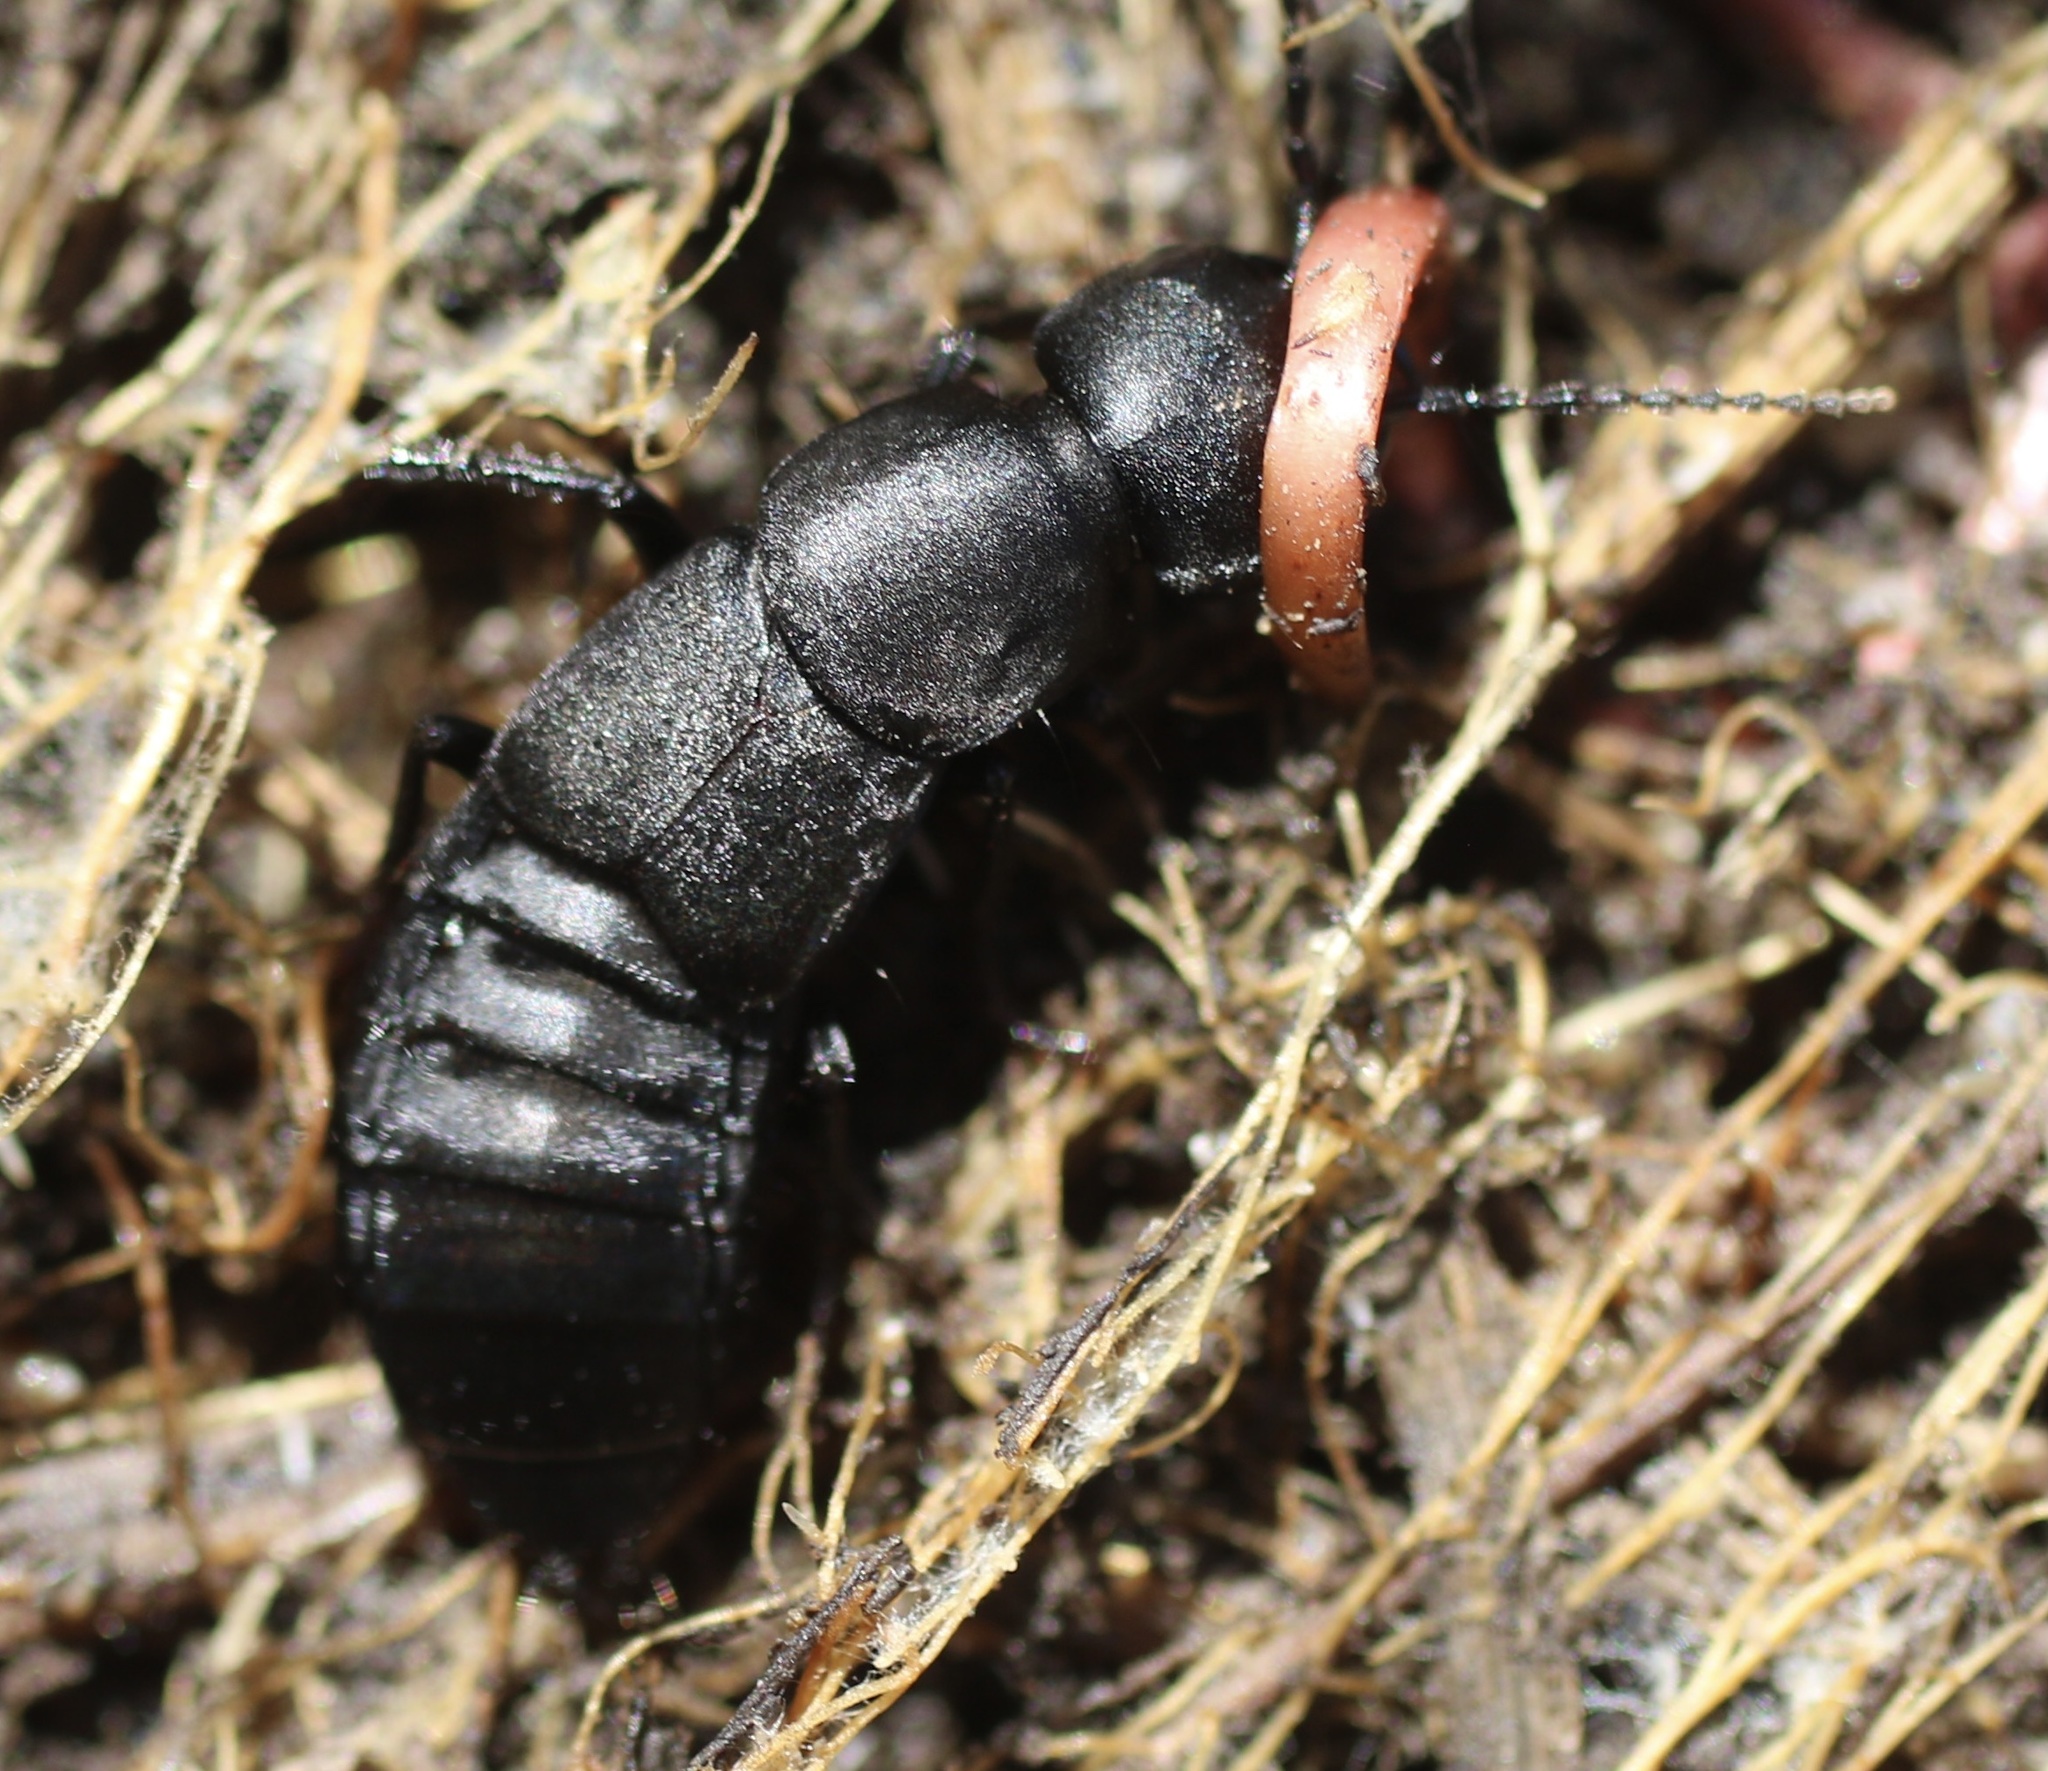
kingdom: Animalia
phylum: Arthropoda
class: Insecta
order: Coleoptera
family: Staphylinidae
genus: Ocypus
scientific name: Ocypus olens
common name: Devil's coach-horse
